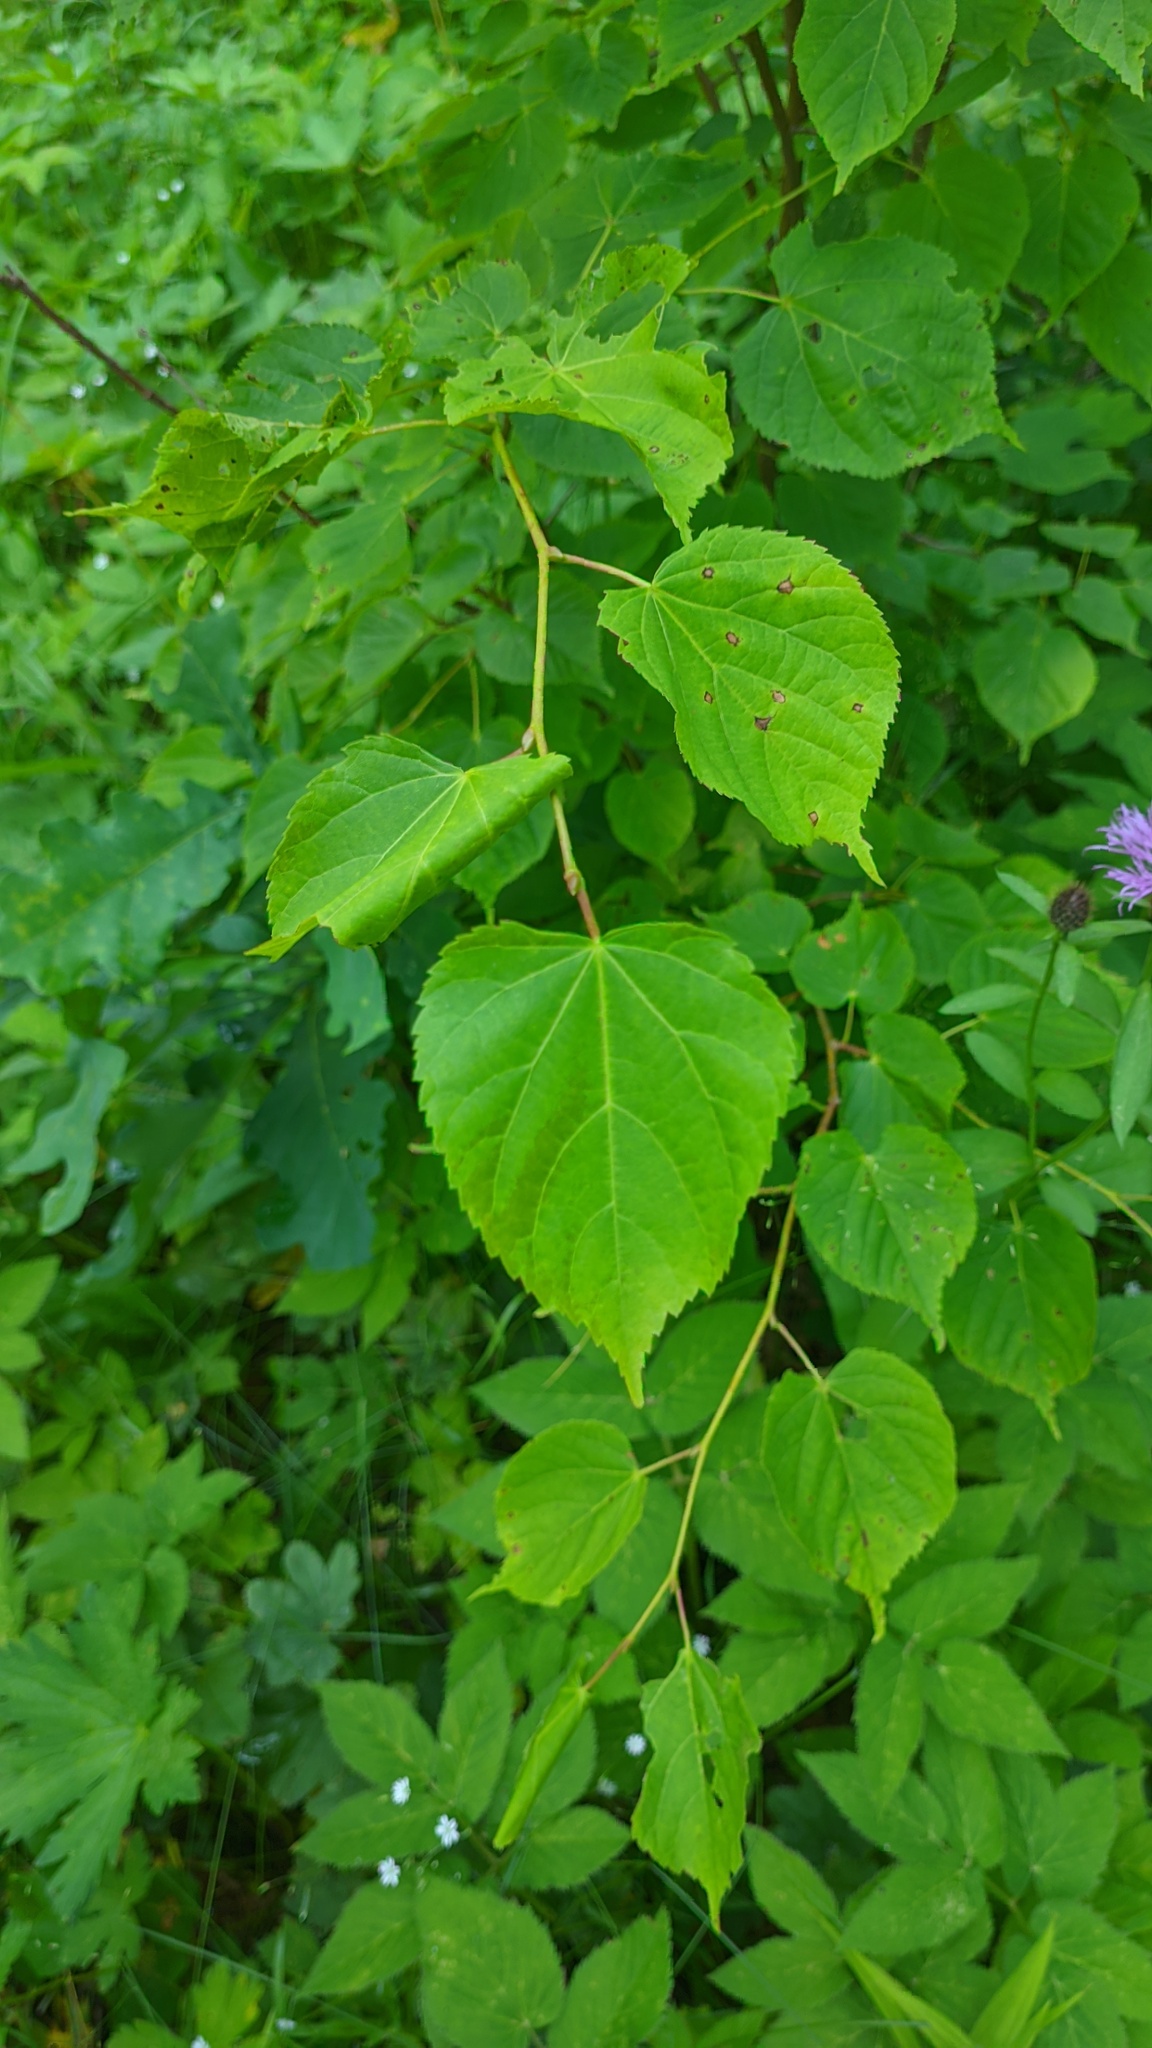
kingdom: Plantae
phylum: Tracheophyta
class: Magnoliopsida
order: Malvales
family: Malvaceae
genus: Tilia
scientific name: Tilia cordata
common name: Small-leaved lime
